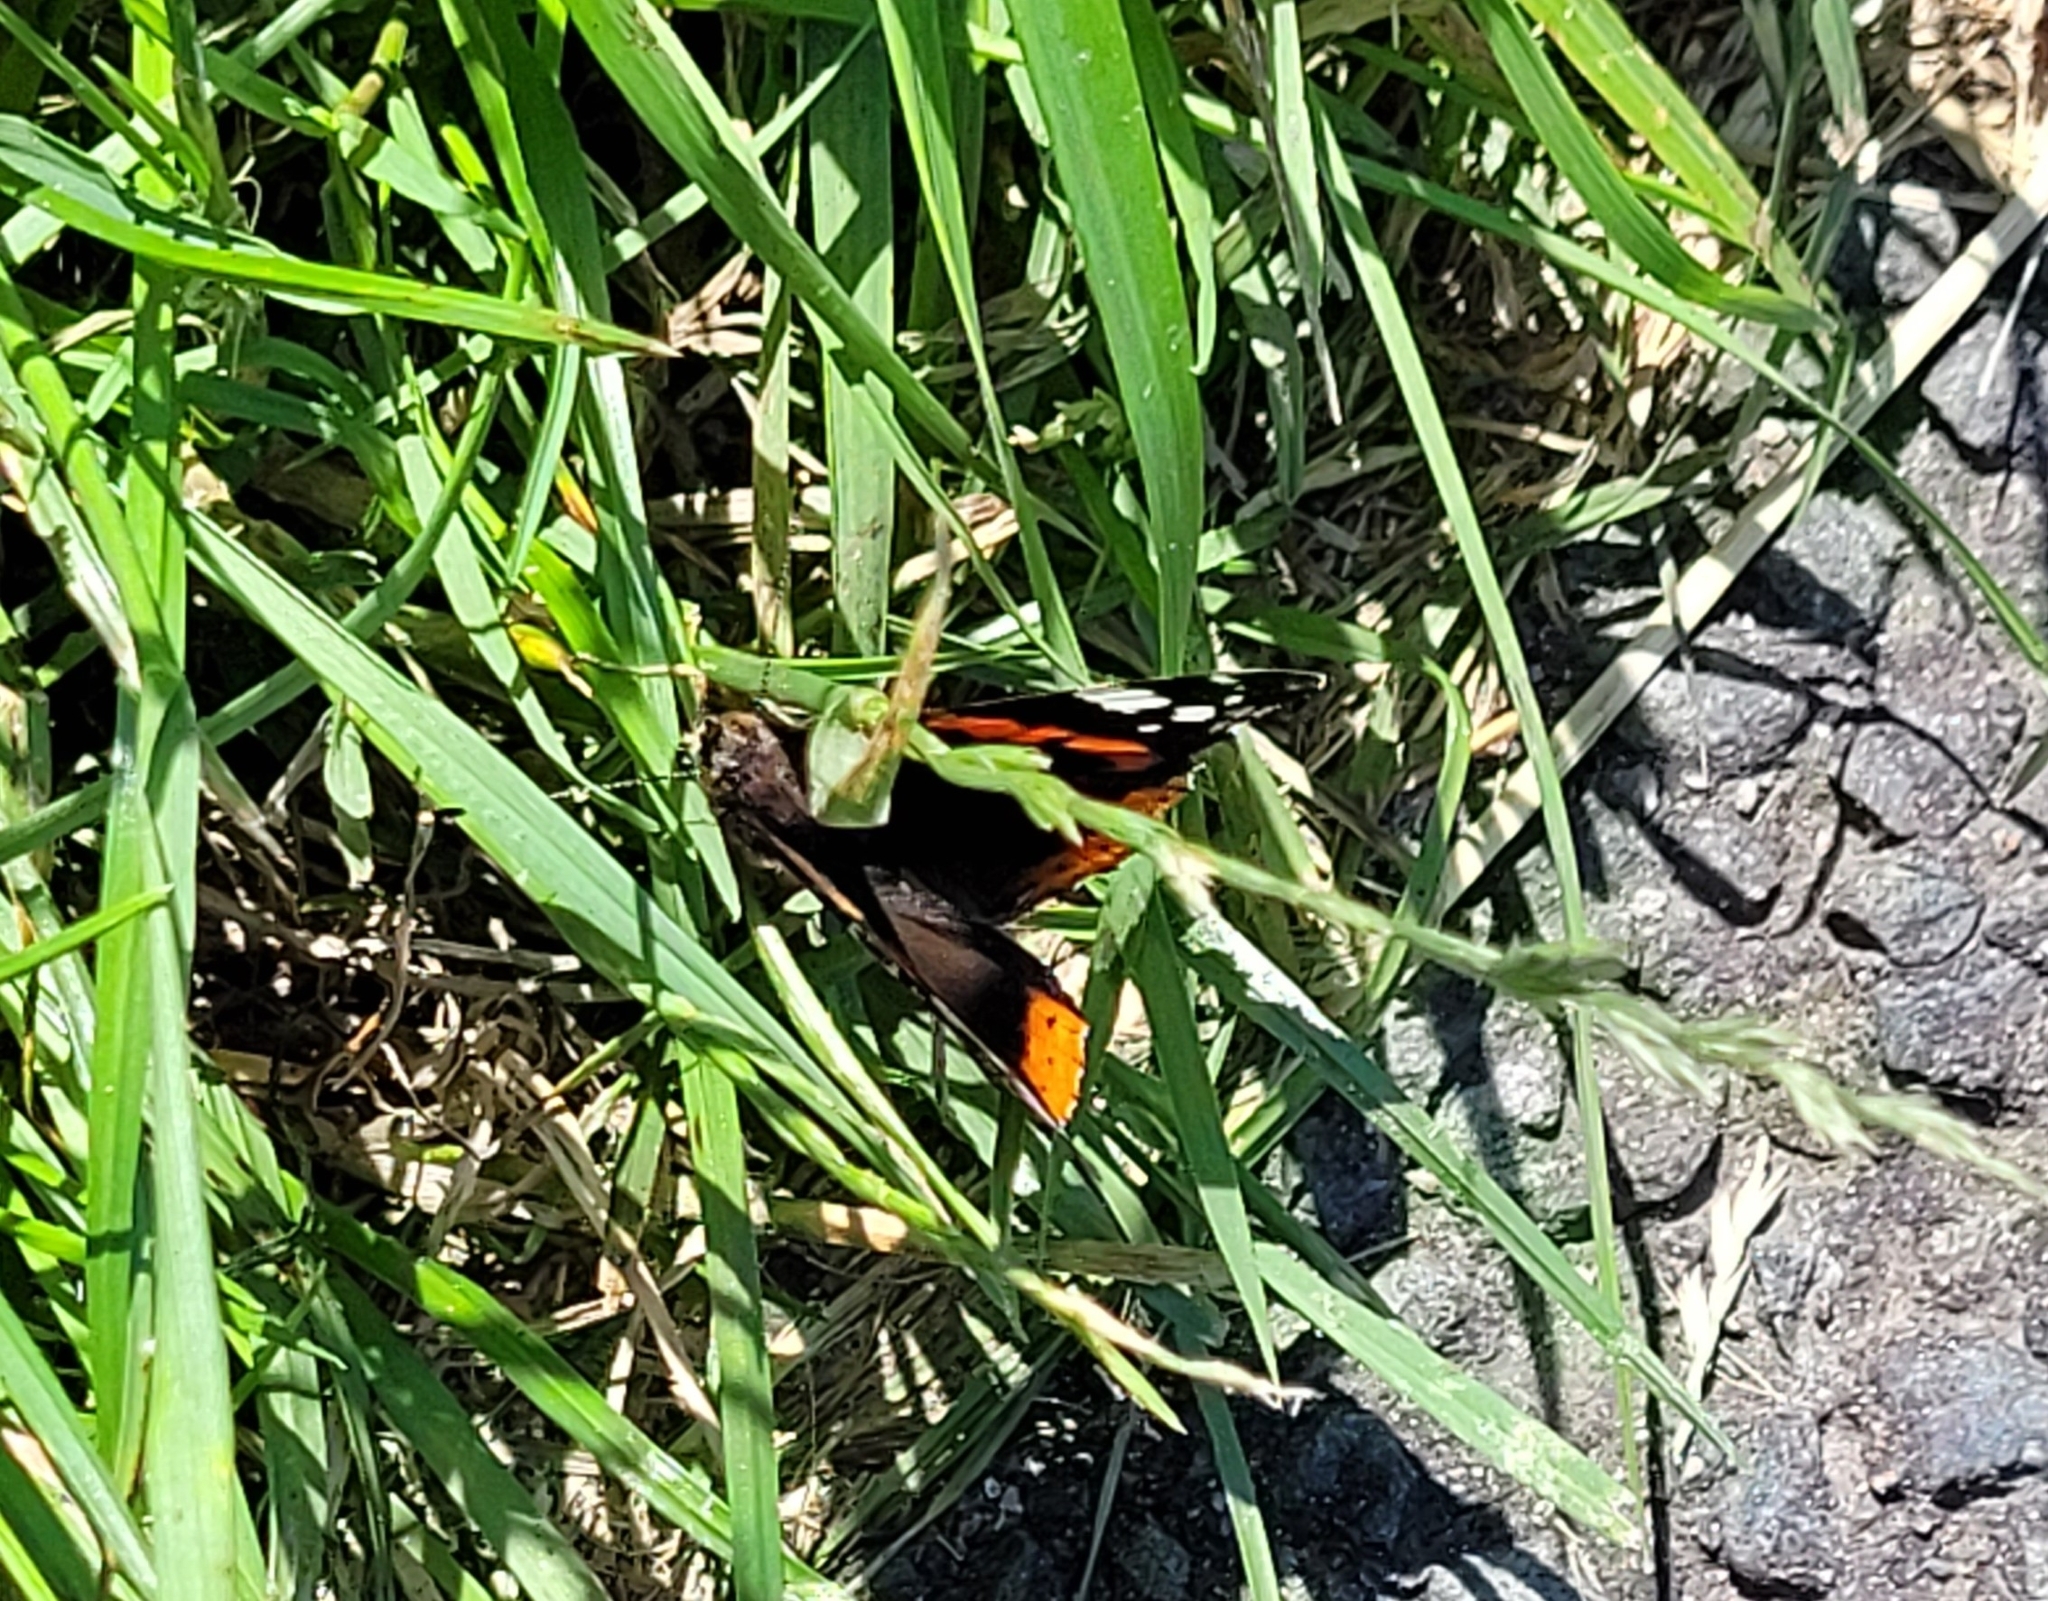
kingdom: Animalia
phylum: Arthropoda
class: Insecta
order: Lepidoptera
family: Nymphalidae
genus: Vanessa
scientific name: Vanessa atalanta
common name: Red admiral
